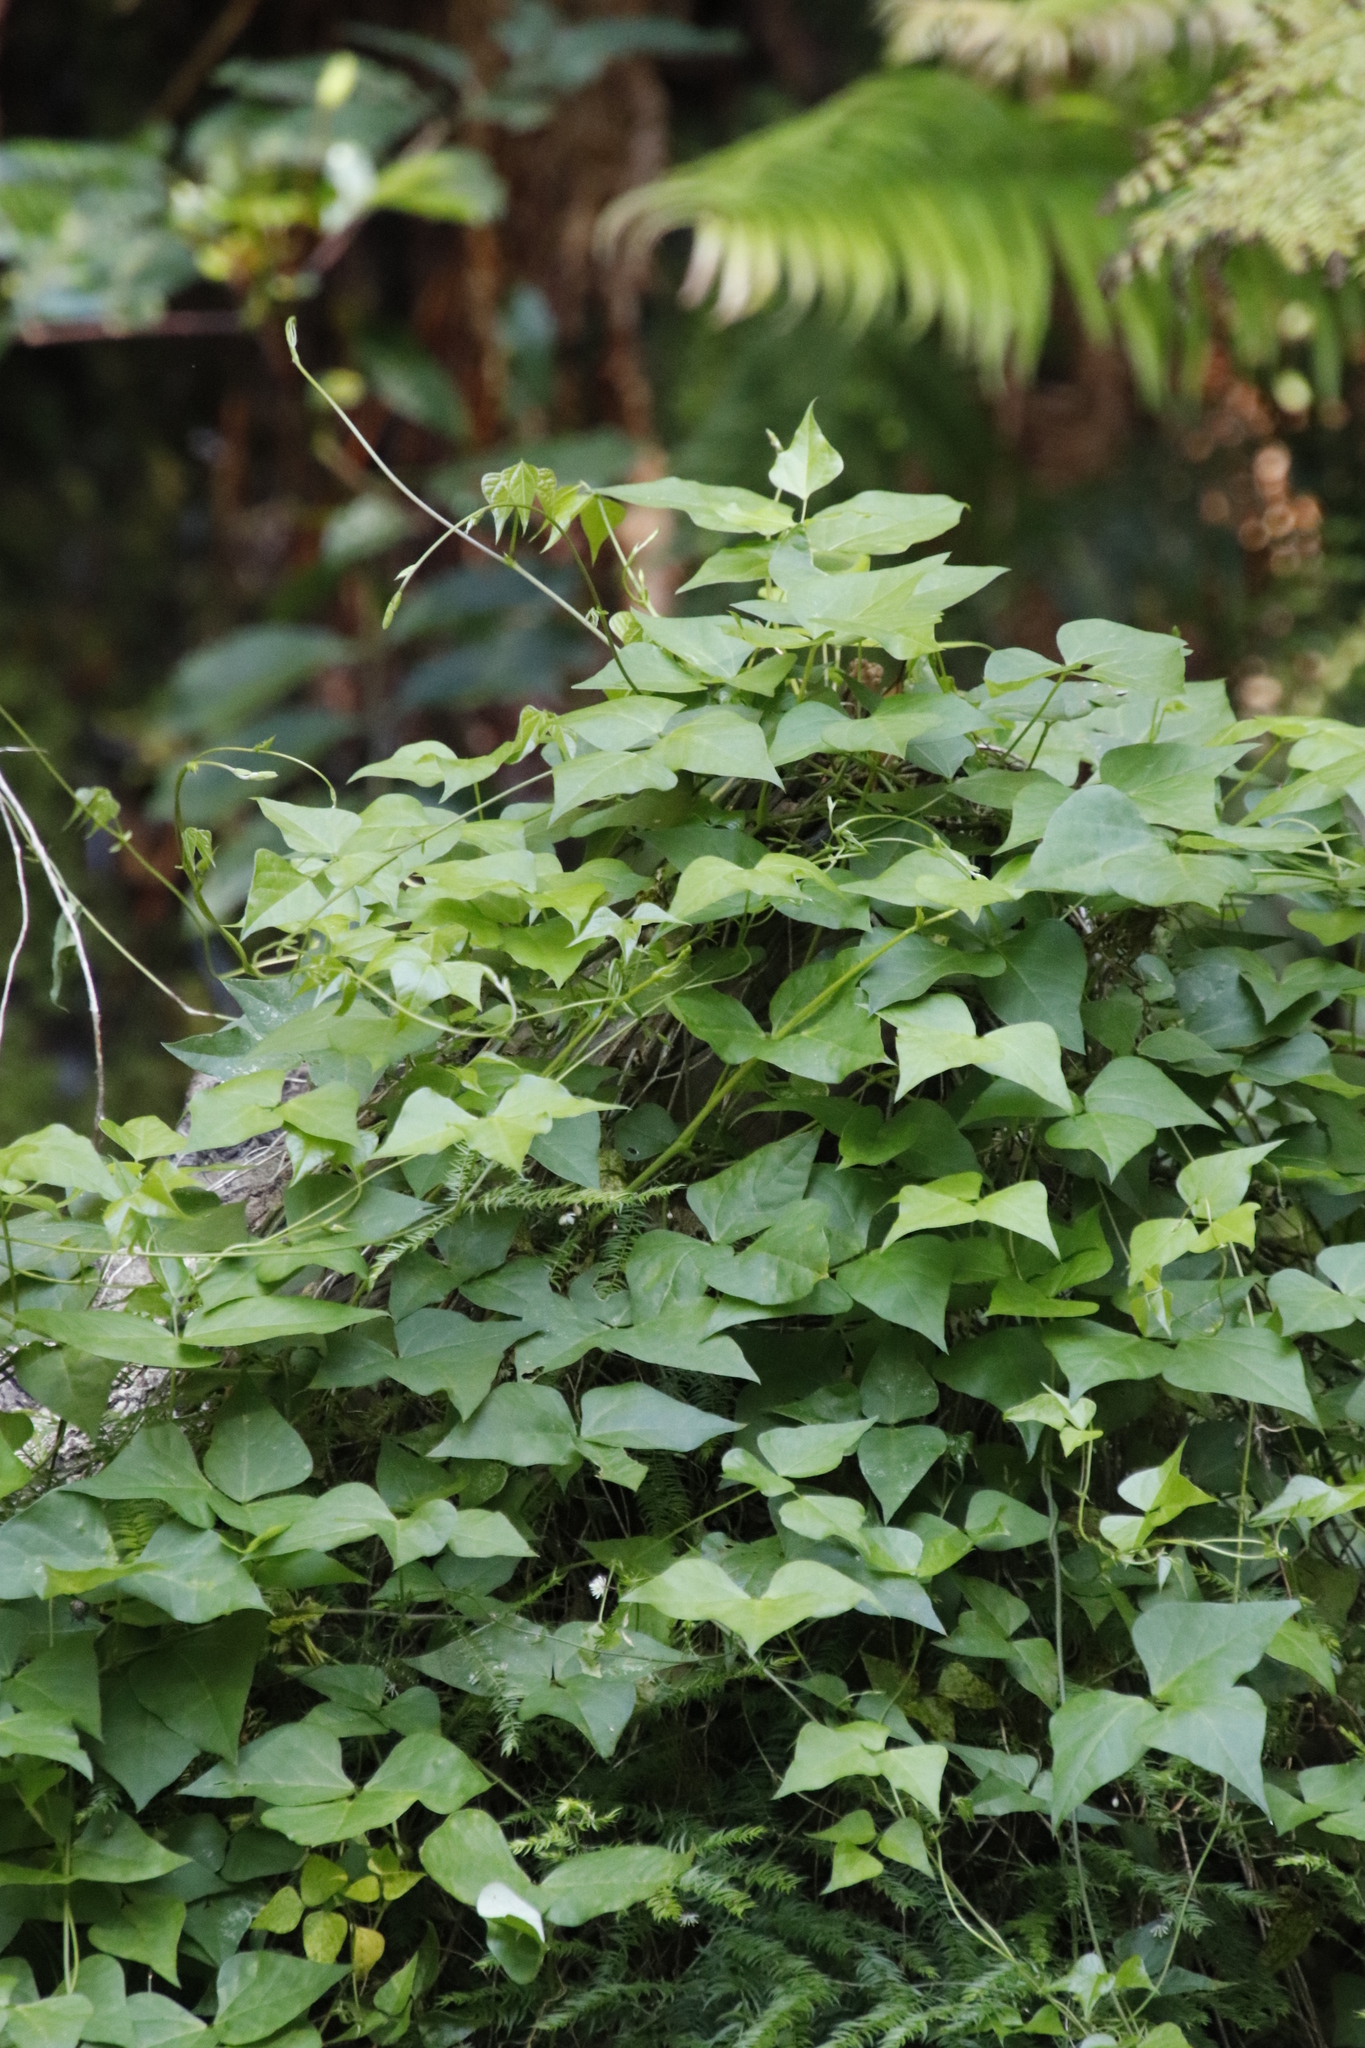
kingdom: Plantae
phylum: Tracheophyta
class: Magnoliopsida
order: Fabales
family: Fabaceae
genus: Dipogon
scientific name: Dipogon lignosus
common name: Okie bean
